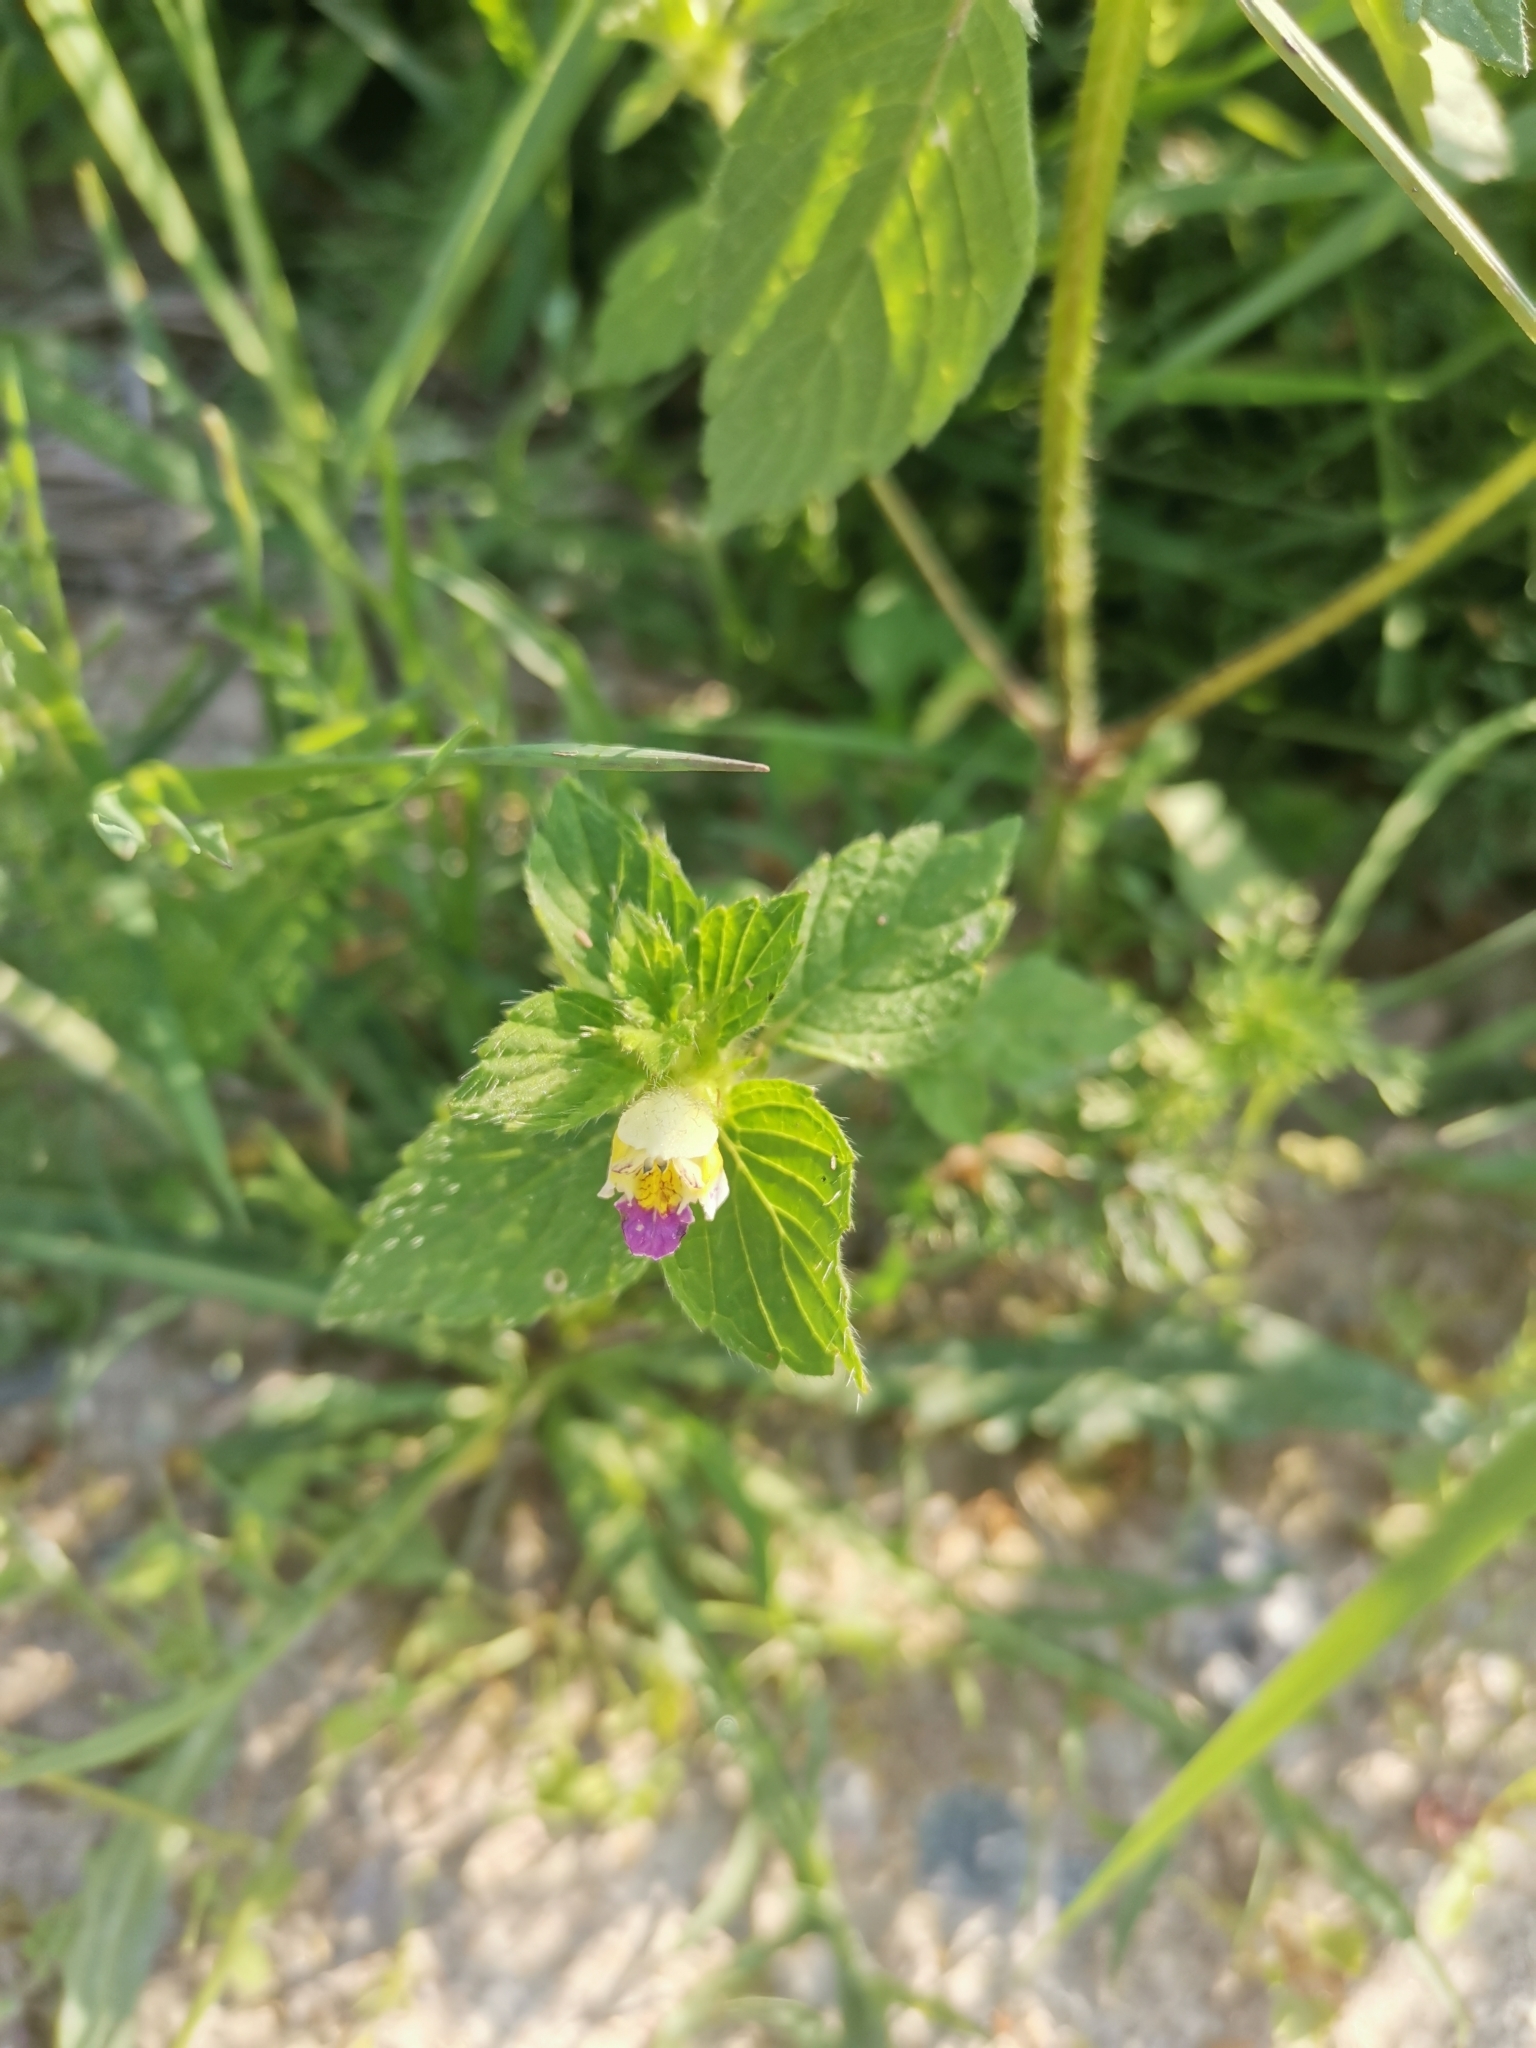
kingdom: Plantae
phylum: Tracheophyta
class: Magnoliopsida
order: Lamiales
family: Lamiaceae
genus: Galeopsis
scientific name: Galeopsis speciosa
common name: Large-flowered hemp-nettle
